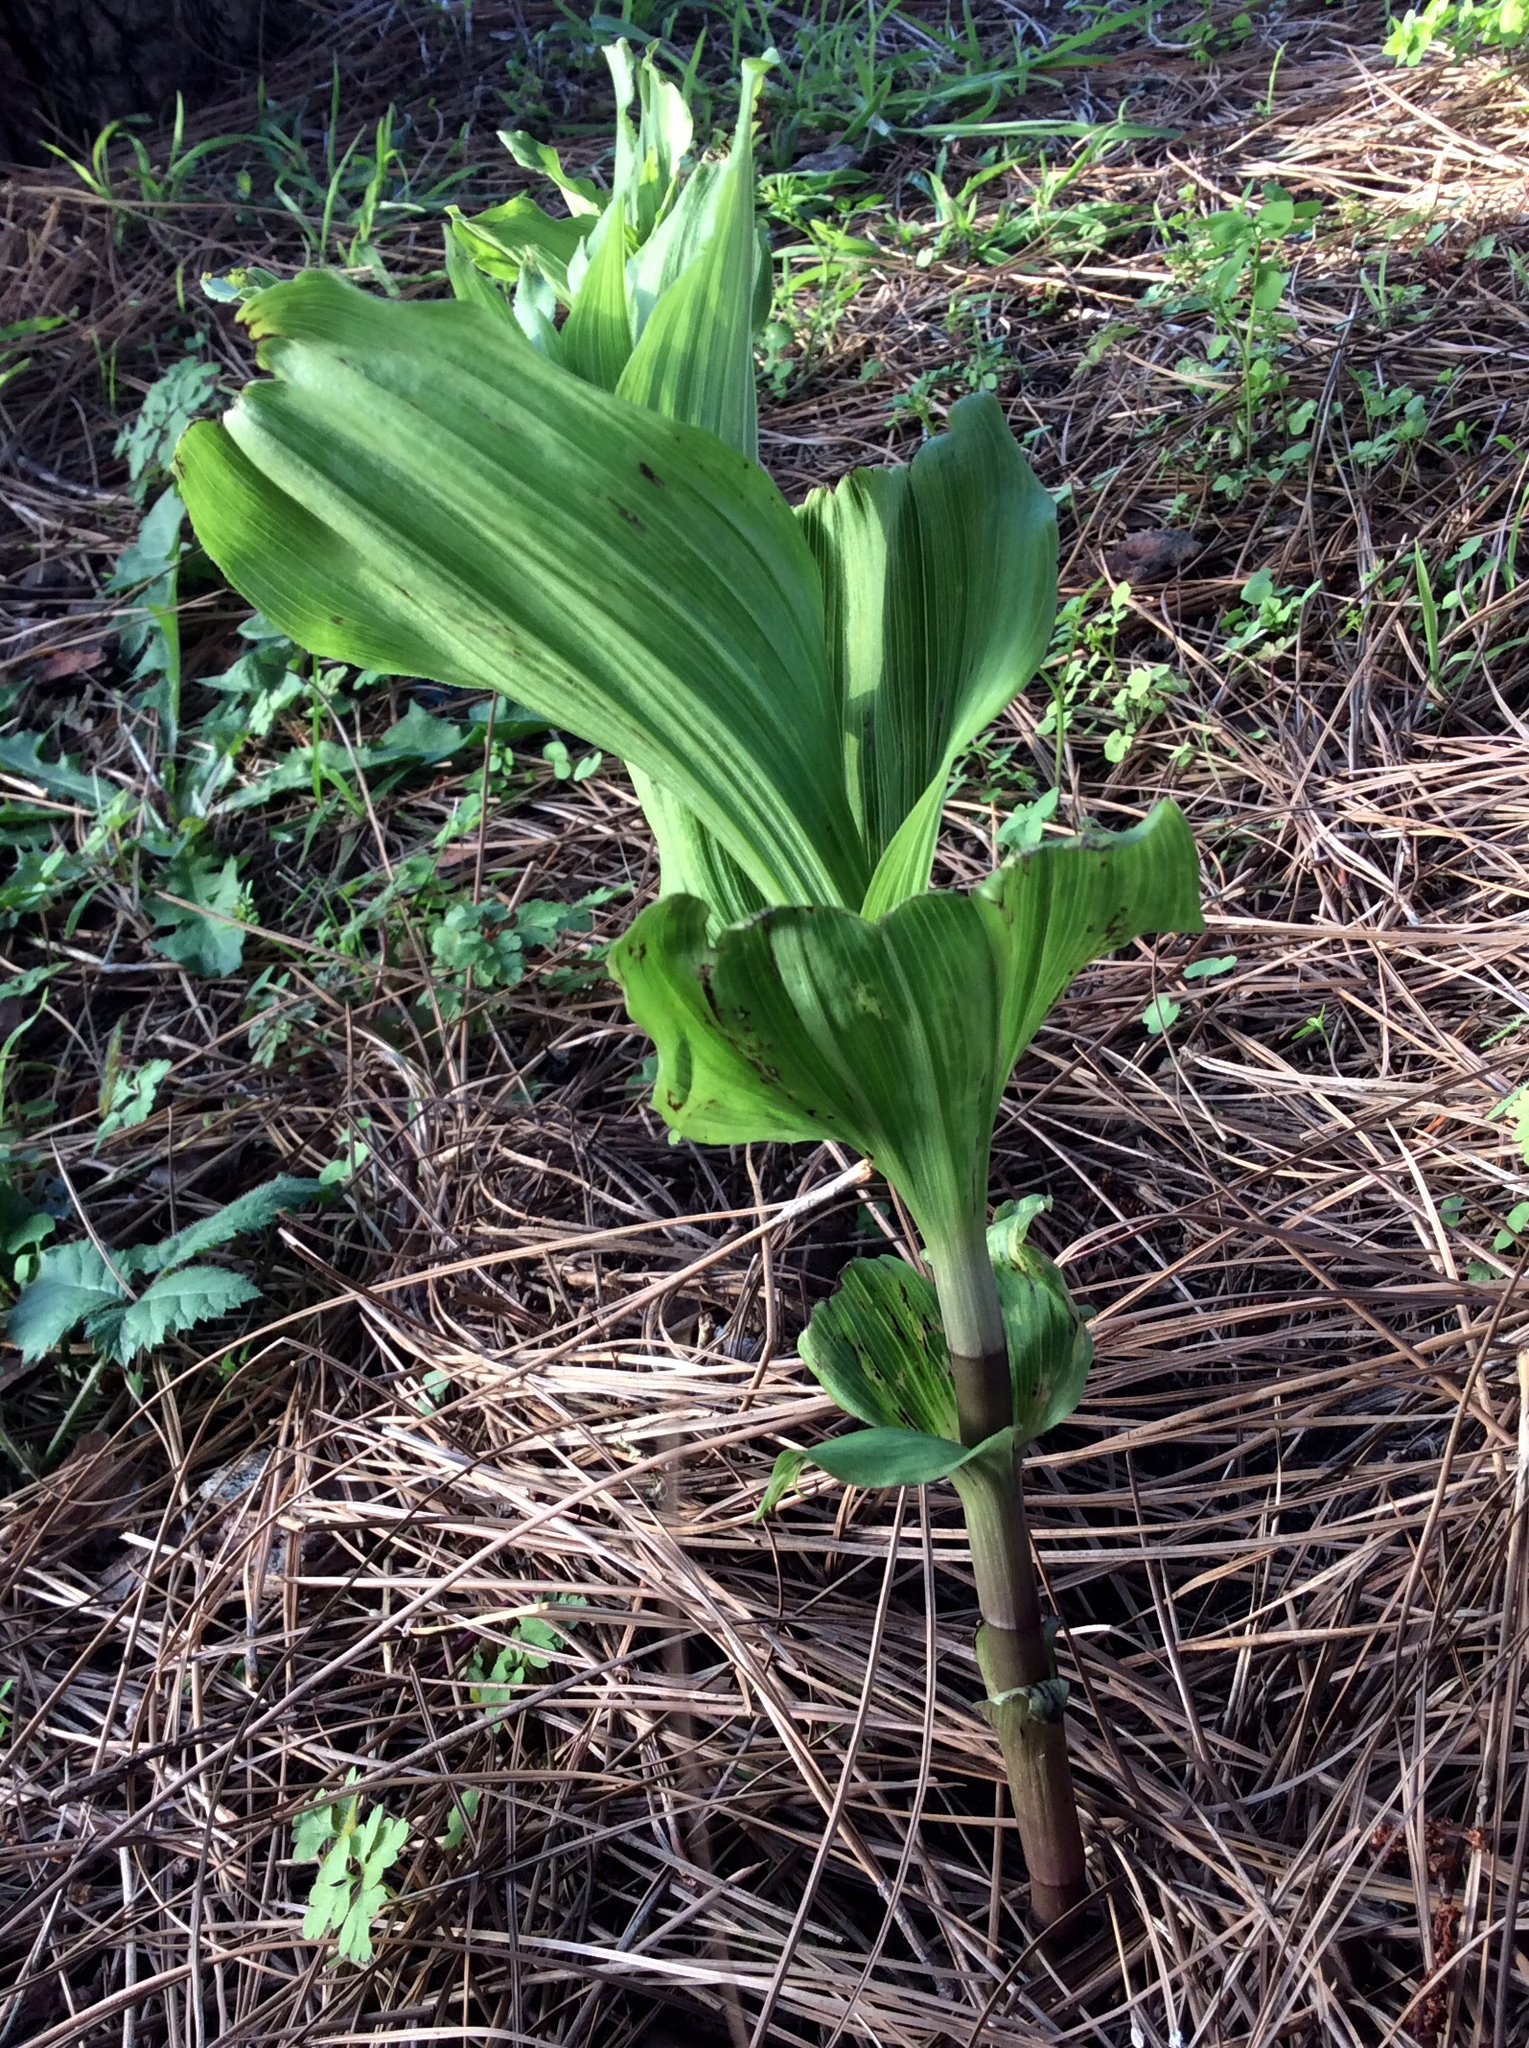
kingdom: Plantae
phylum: Tracheophyta
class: Liliopsida
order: Asparagales
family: Orchidaceae
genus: Epipactis
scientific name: Epipactis helleborine
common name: Broad-leaved helleborine
